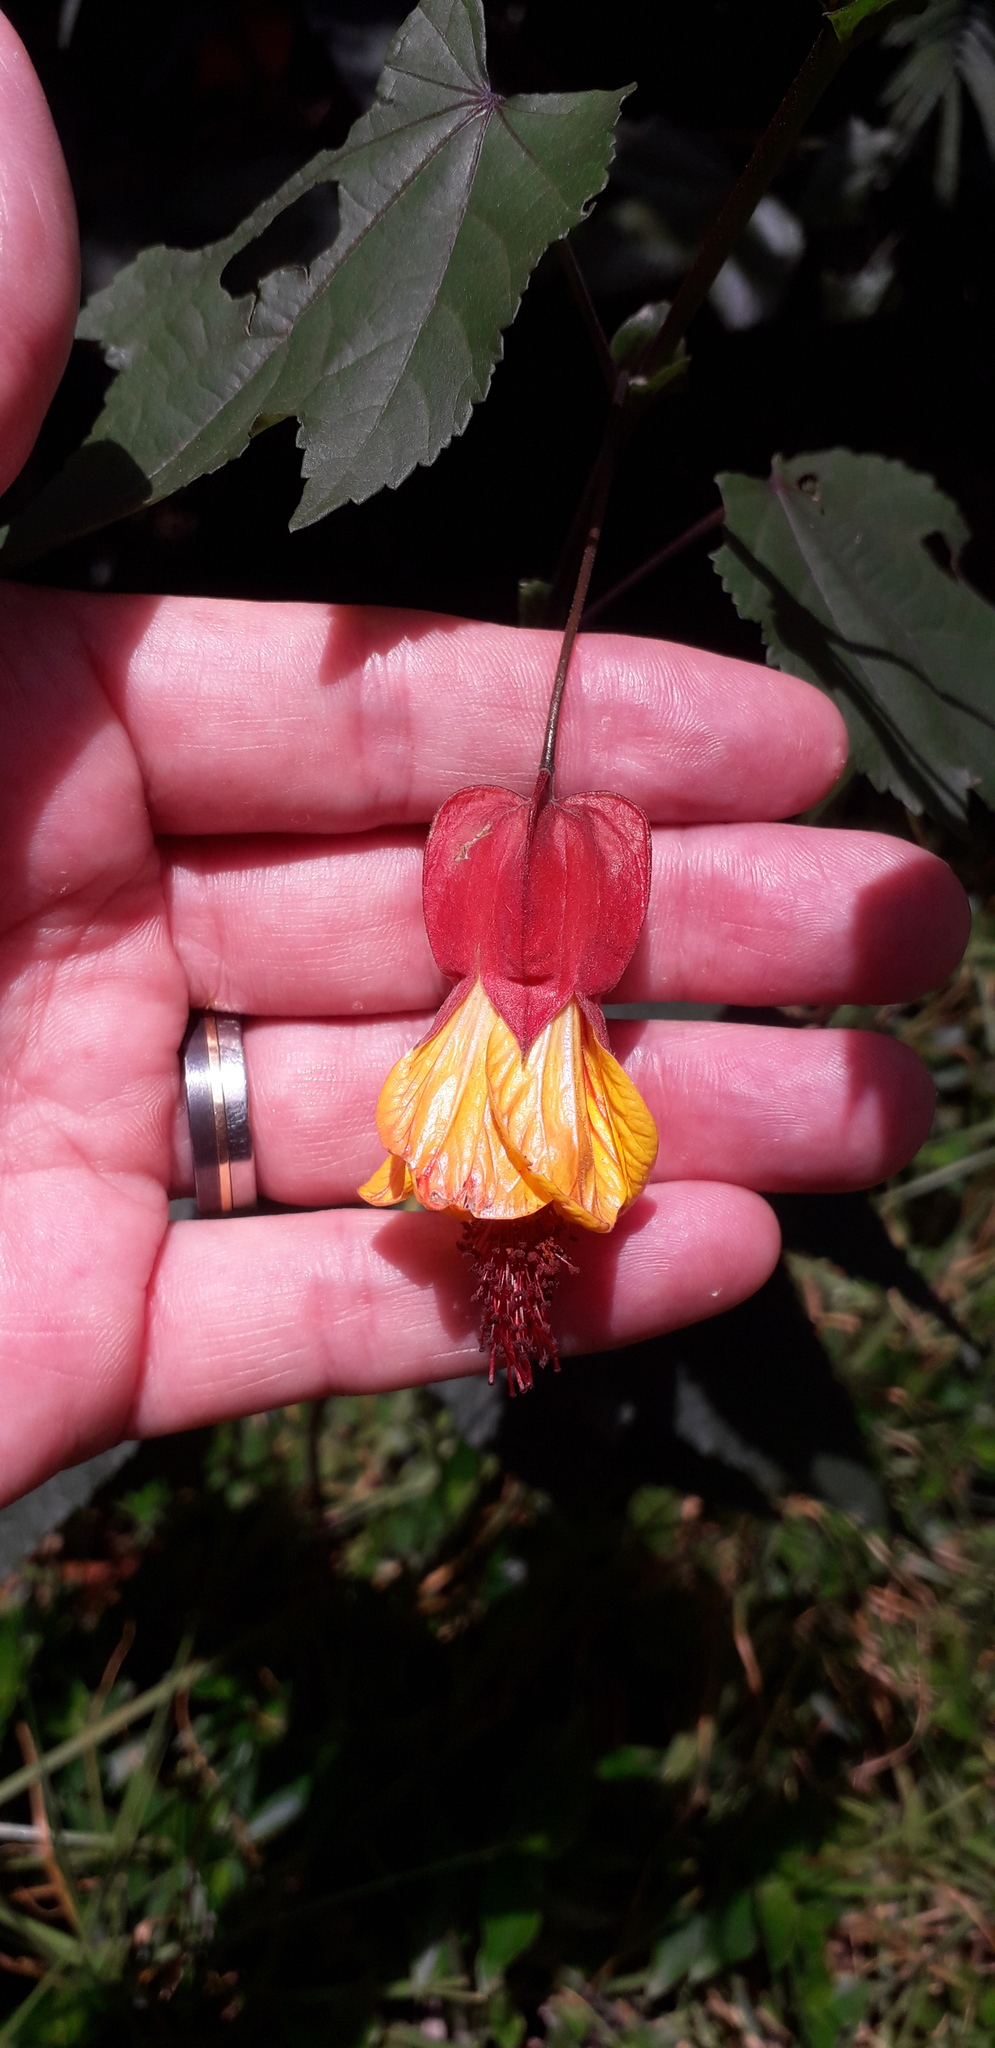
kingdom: Plantae
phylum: Tracheophyta
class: Magnoliopsida
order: Malvales
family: Malvaceae
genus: Callianthe
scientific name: Callianthe megapotamica
